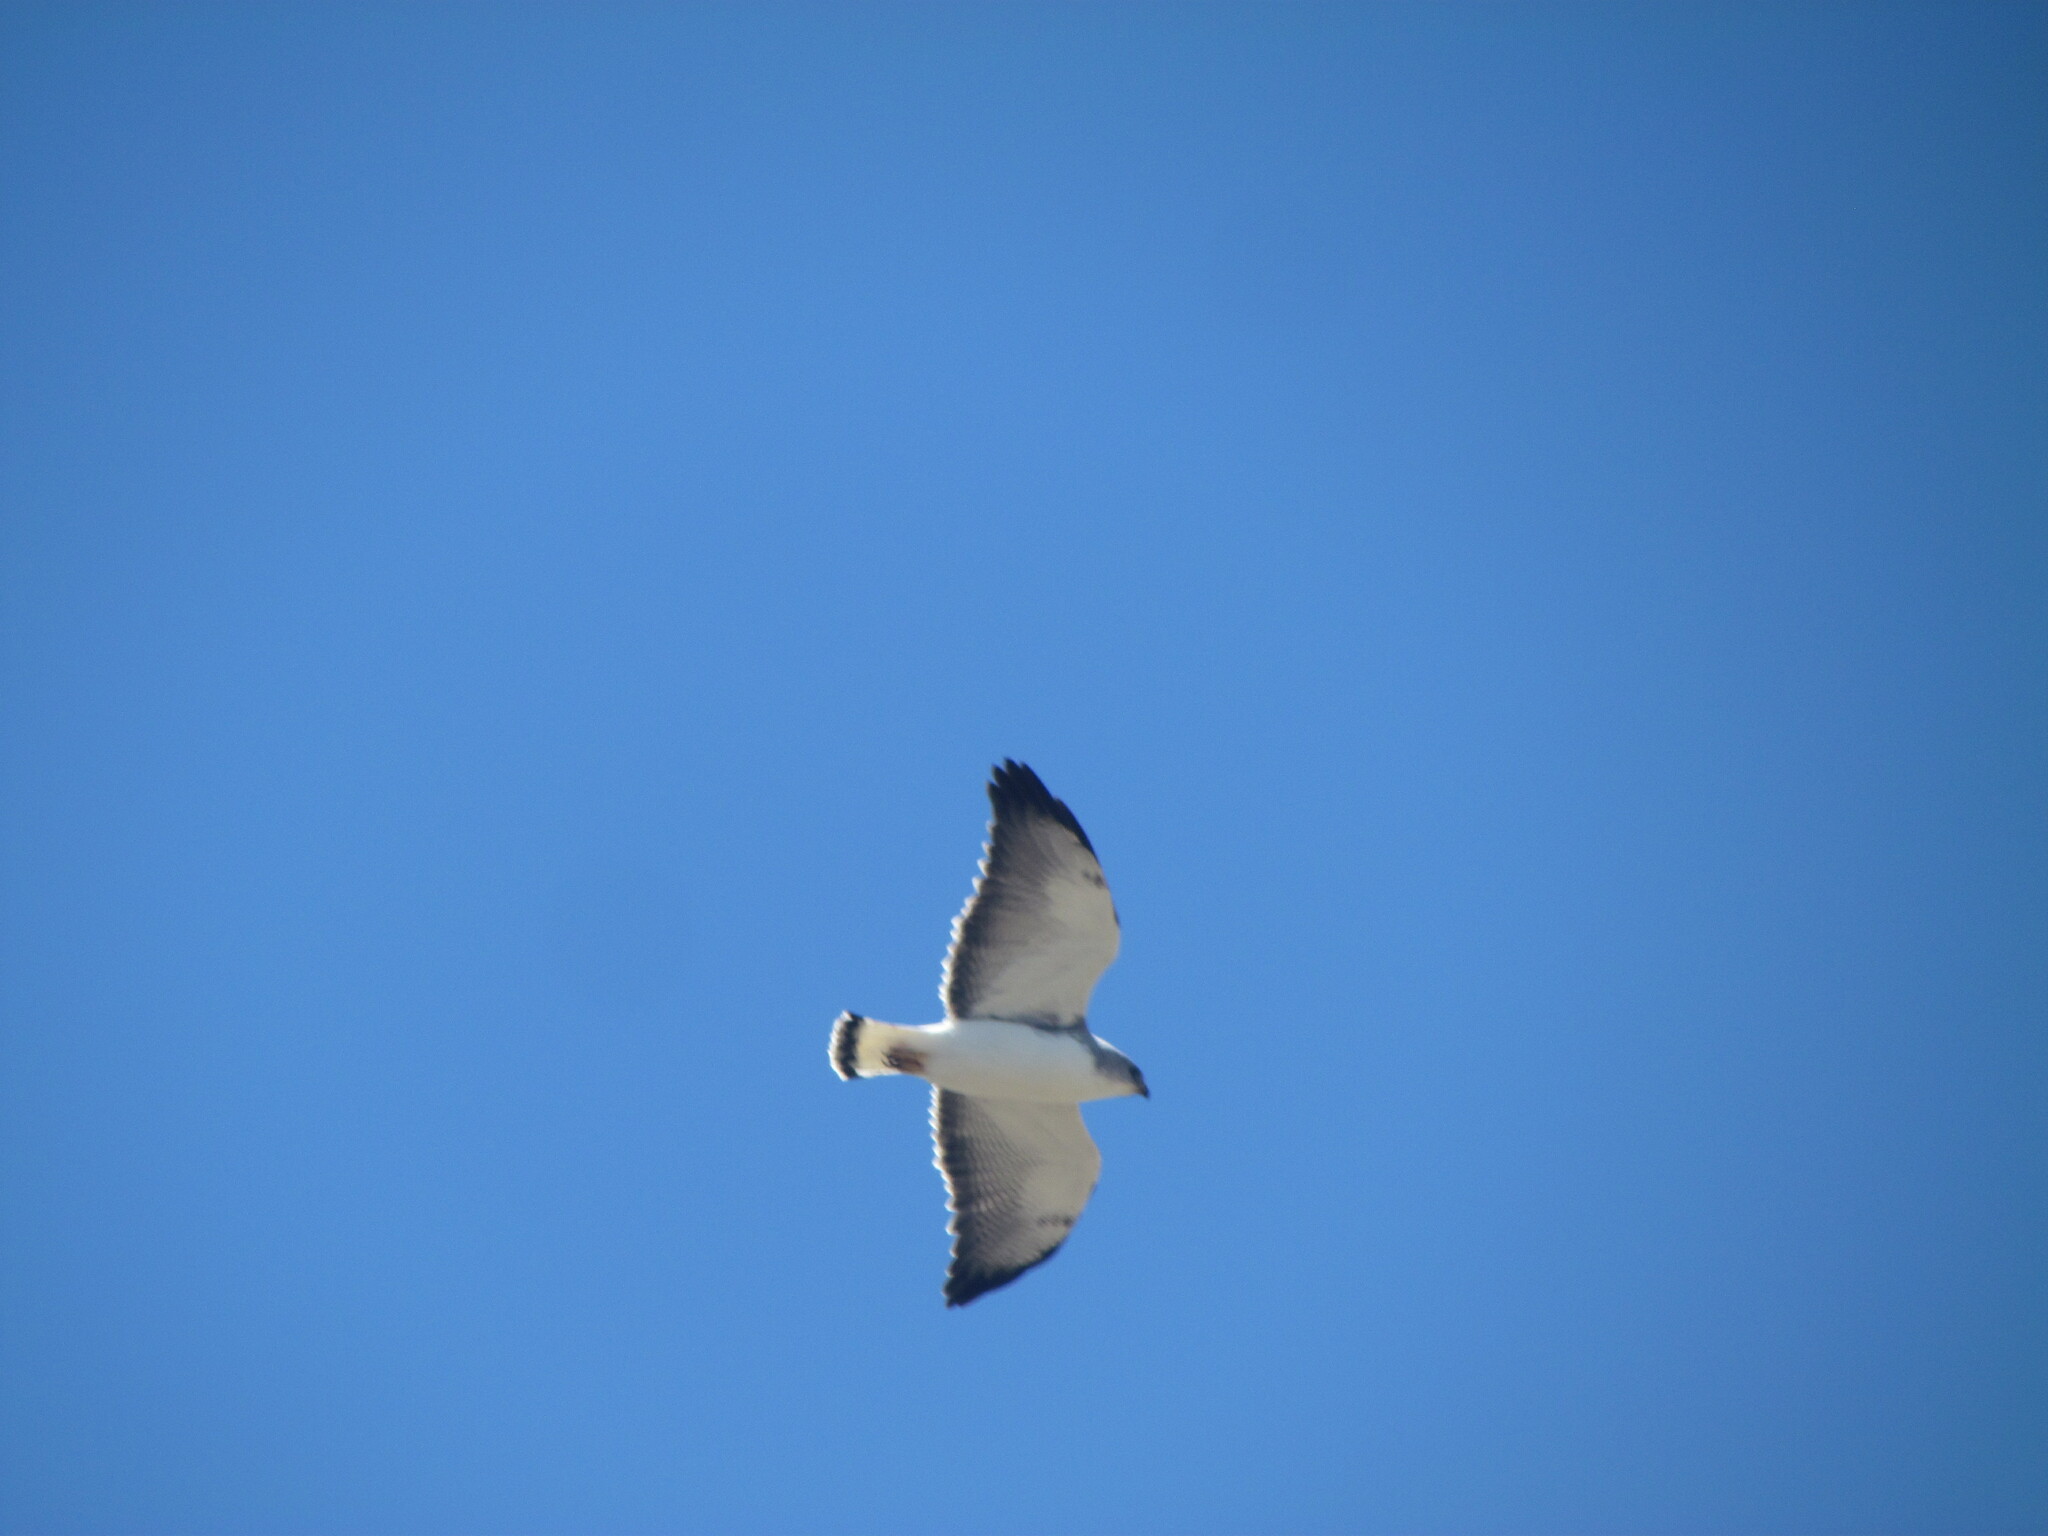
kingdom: Animalia
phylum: Chordata
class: Aves
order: Accipitriformes
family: Accipitridae
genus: Buteo
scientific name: Buteo polyosoma
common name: Variable hawk
